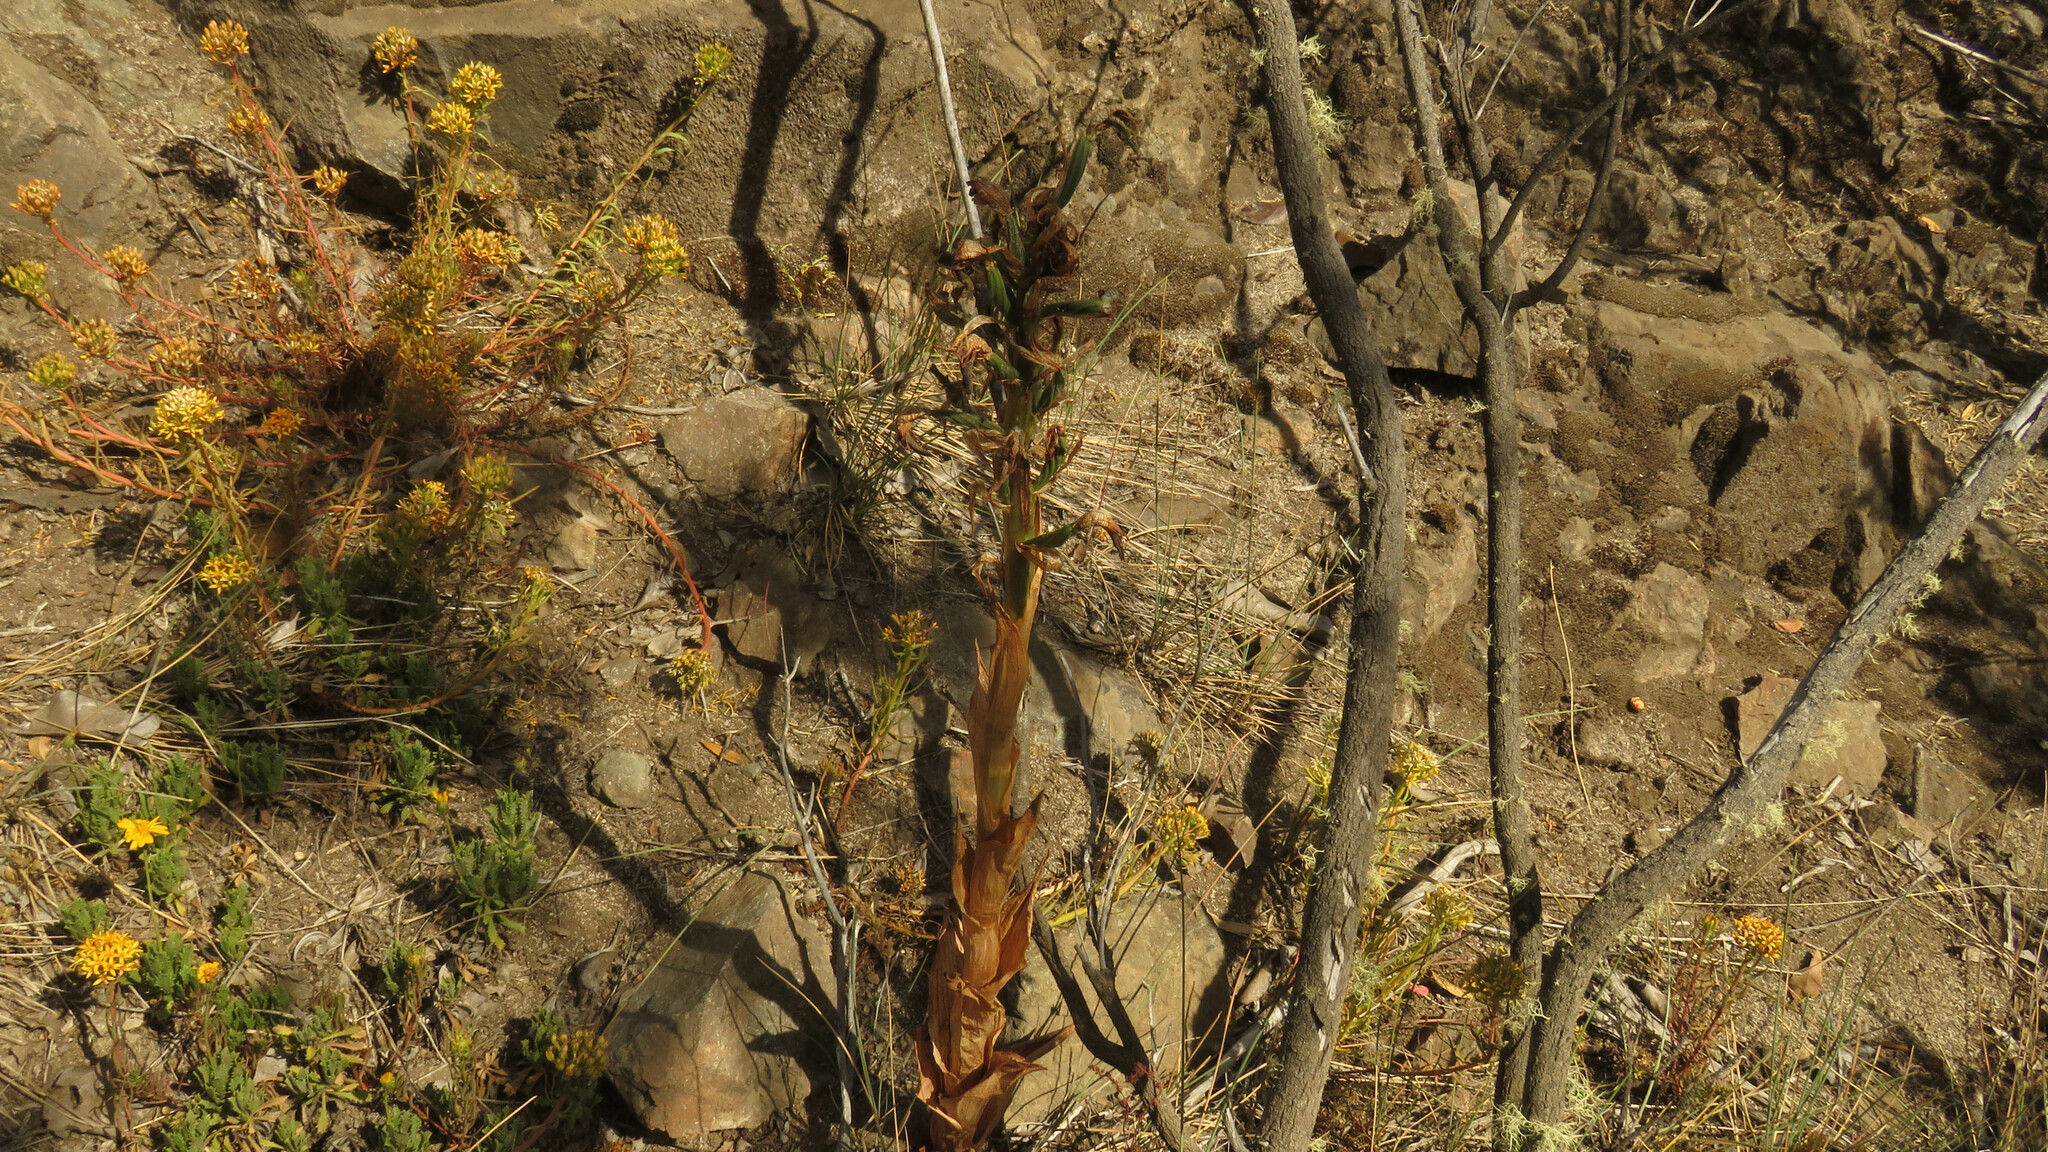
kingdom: Plantae
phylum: Tracheophyta
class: Liliopsida
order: Asparagales
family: Orchidaceae
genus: Chloraea
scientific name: Chloraea cylindrostachya
